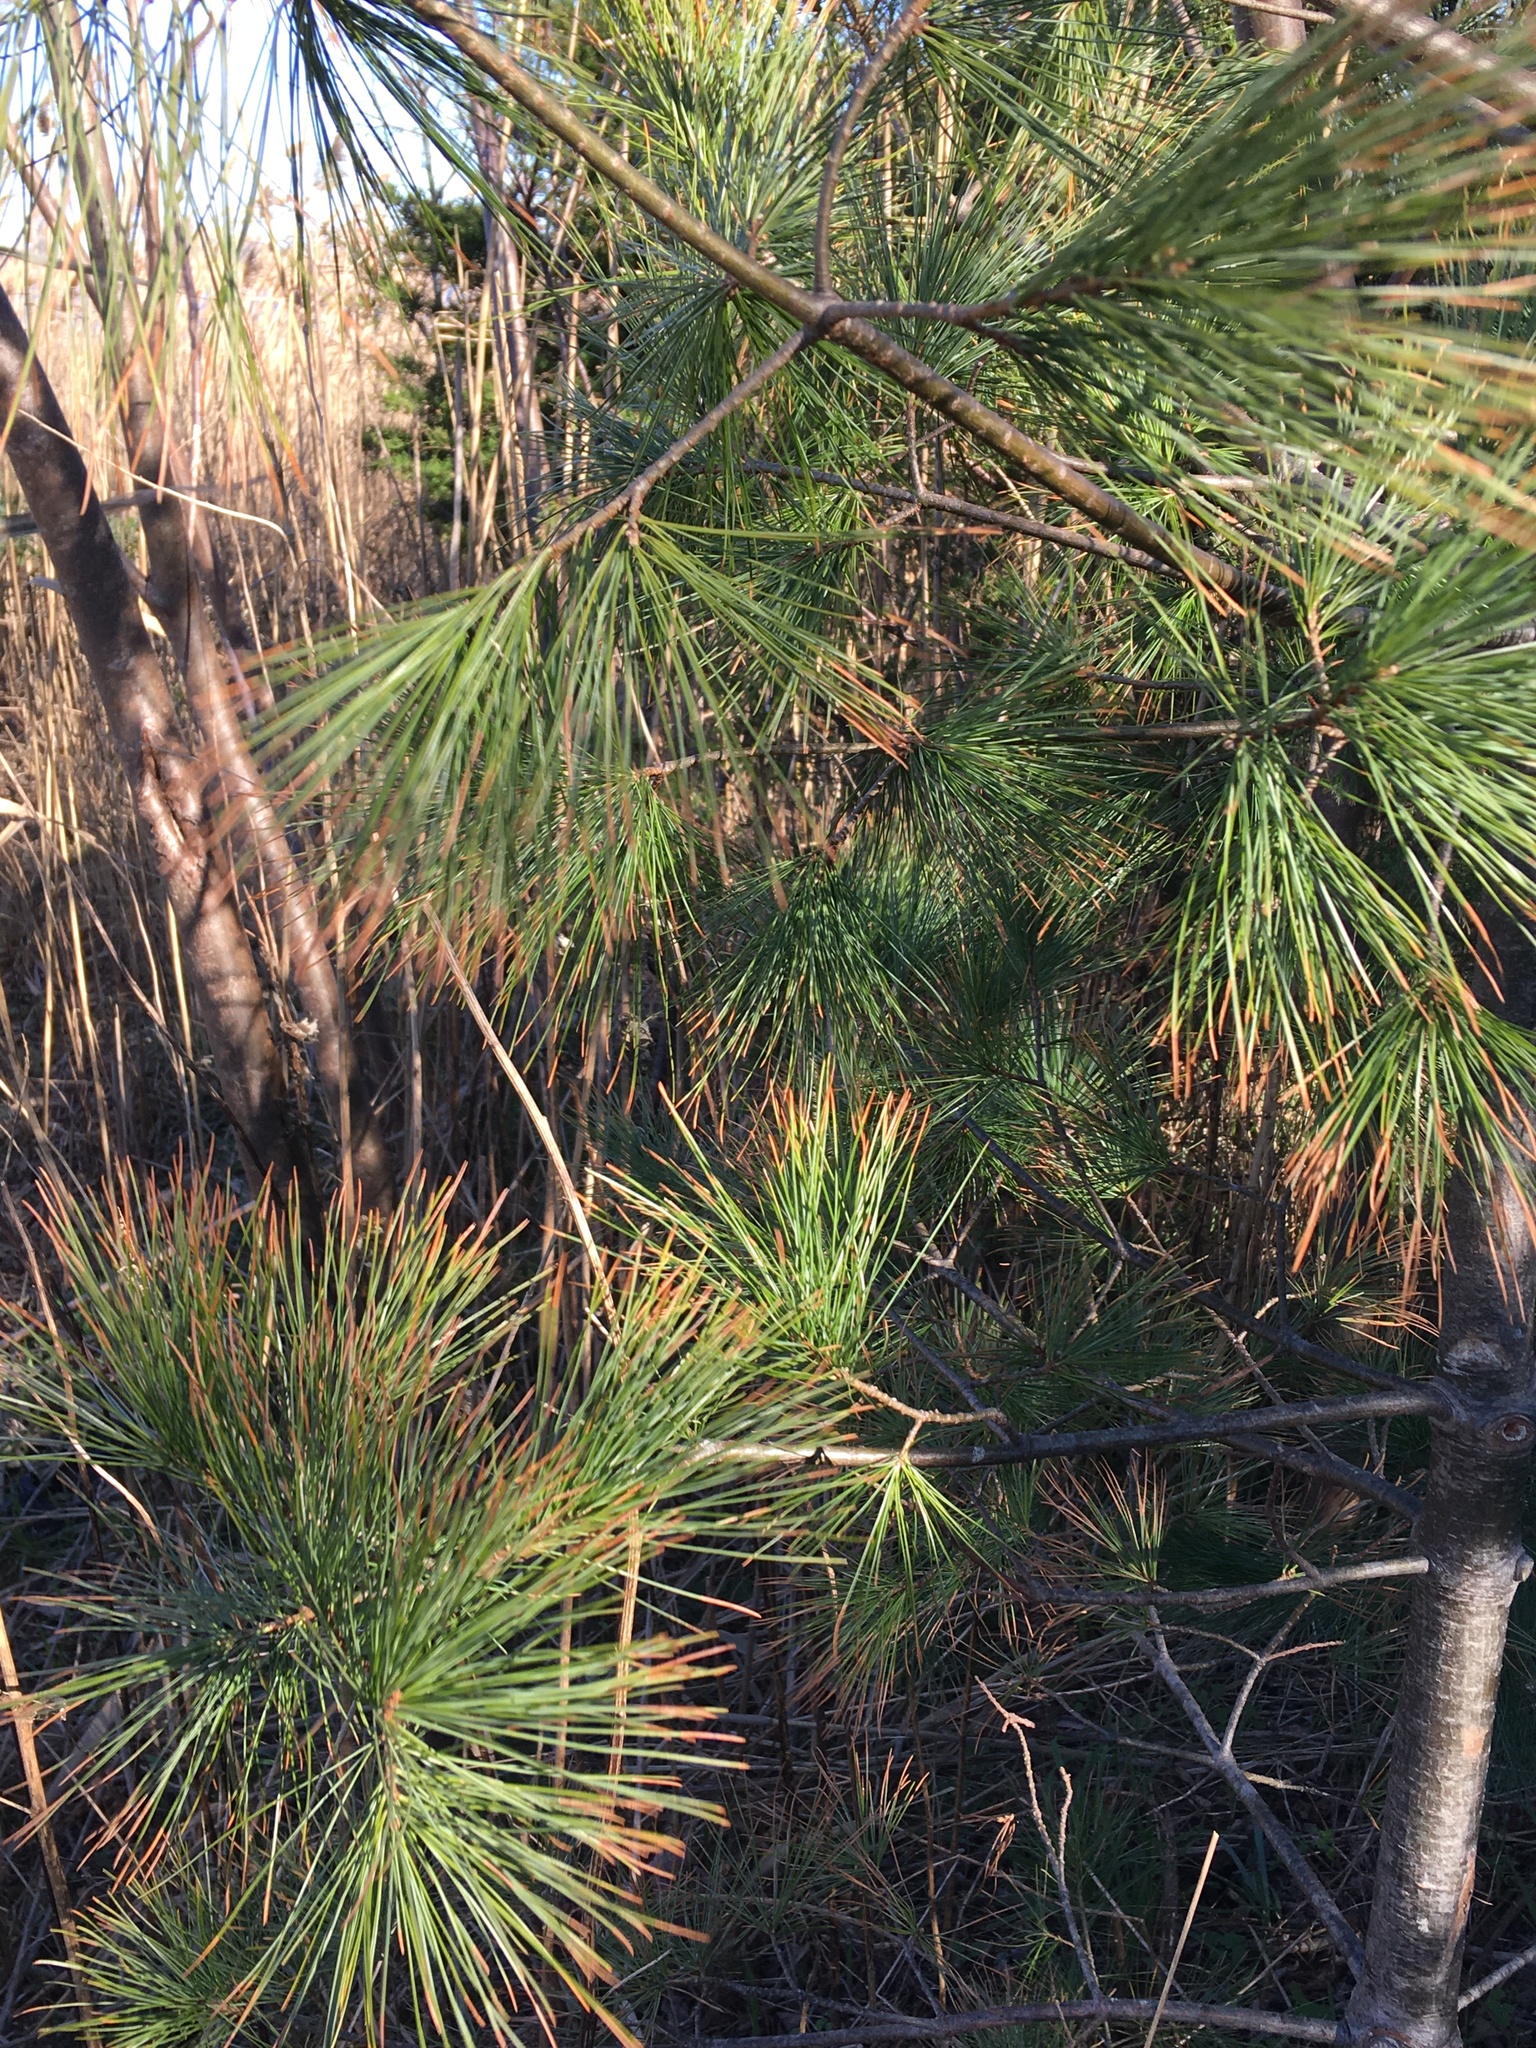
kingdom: Plantae
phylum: Tracheophyta
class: Pinopsida
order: Pinales
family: Pinaceae
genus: Pinus
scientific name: Pinus strobus
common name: Weymouth pine
